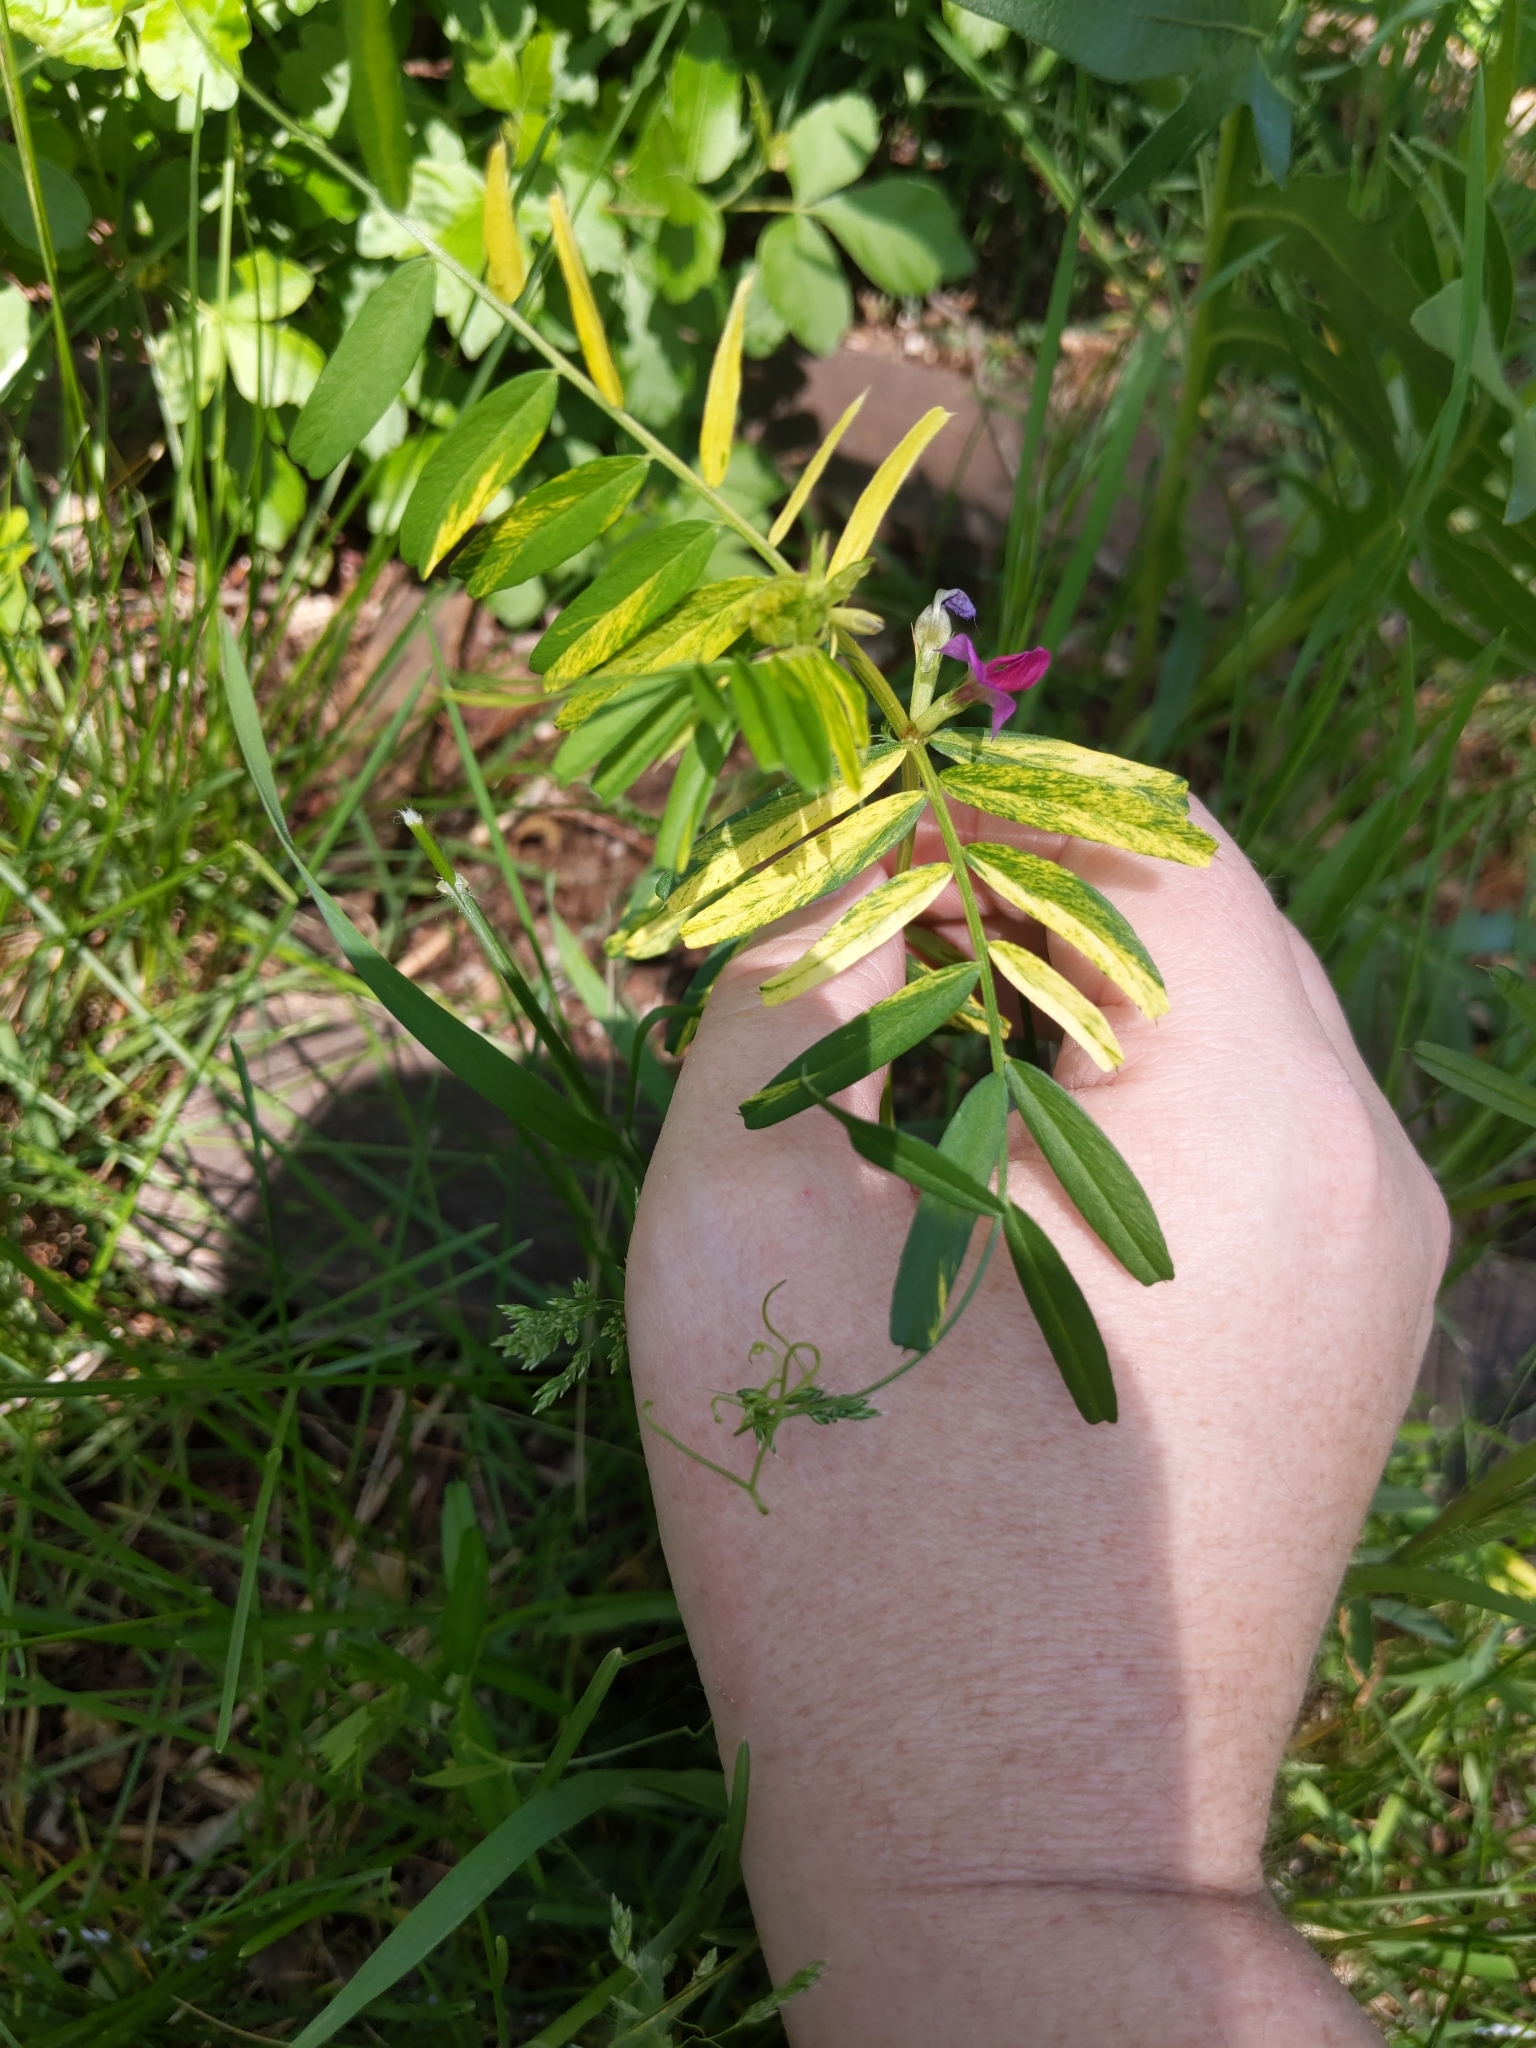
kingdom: Plantae
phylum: Tracheophyta
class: Magnoliopsida
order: Fabales
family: Fabaceae
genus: Vicia
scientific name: Vicia sativa
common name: Garden vetch
